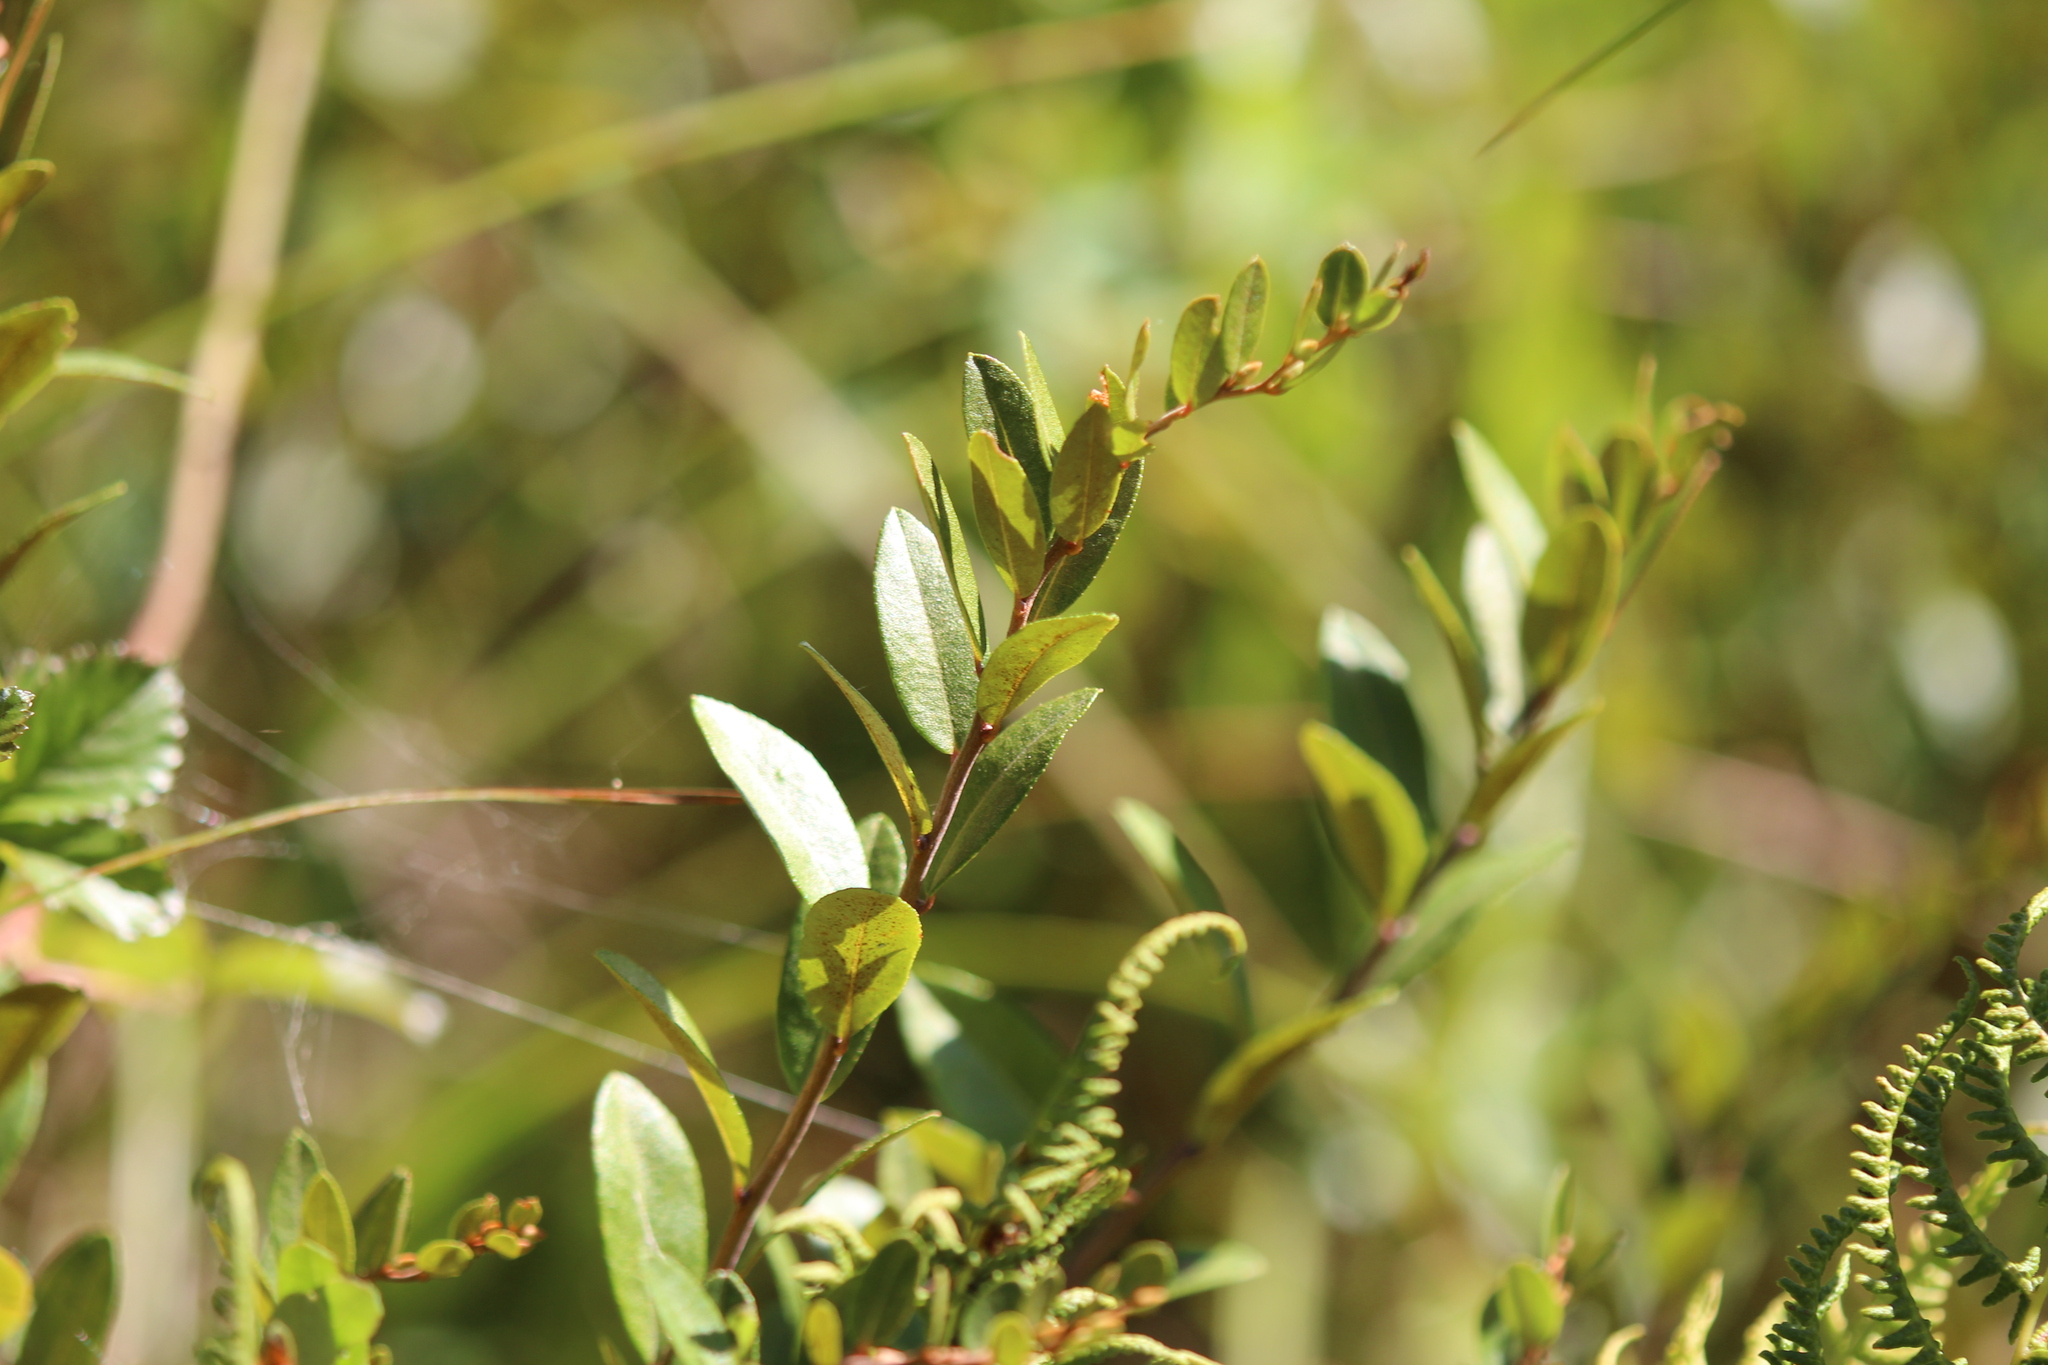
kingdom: Plantae
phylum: Tracheophyta
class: Magnoliopsida
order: Ericales
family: Ericaceae
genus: Chamaedaphne
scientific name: Chamaedaphne calyculata
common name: Leatherleaf
